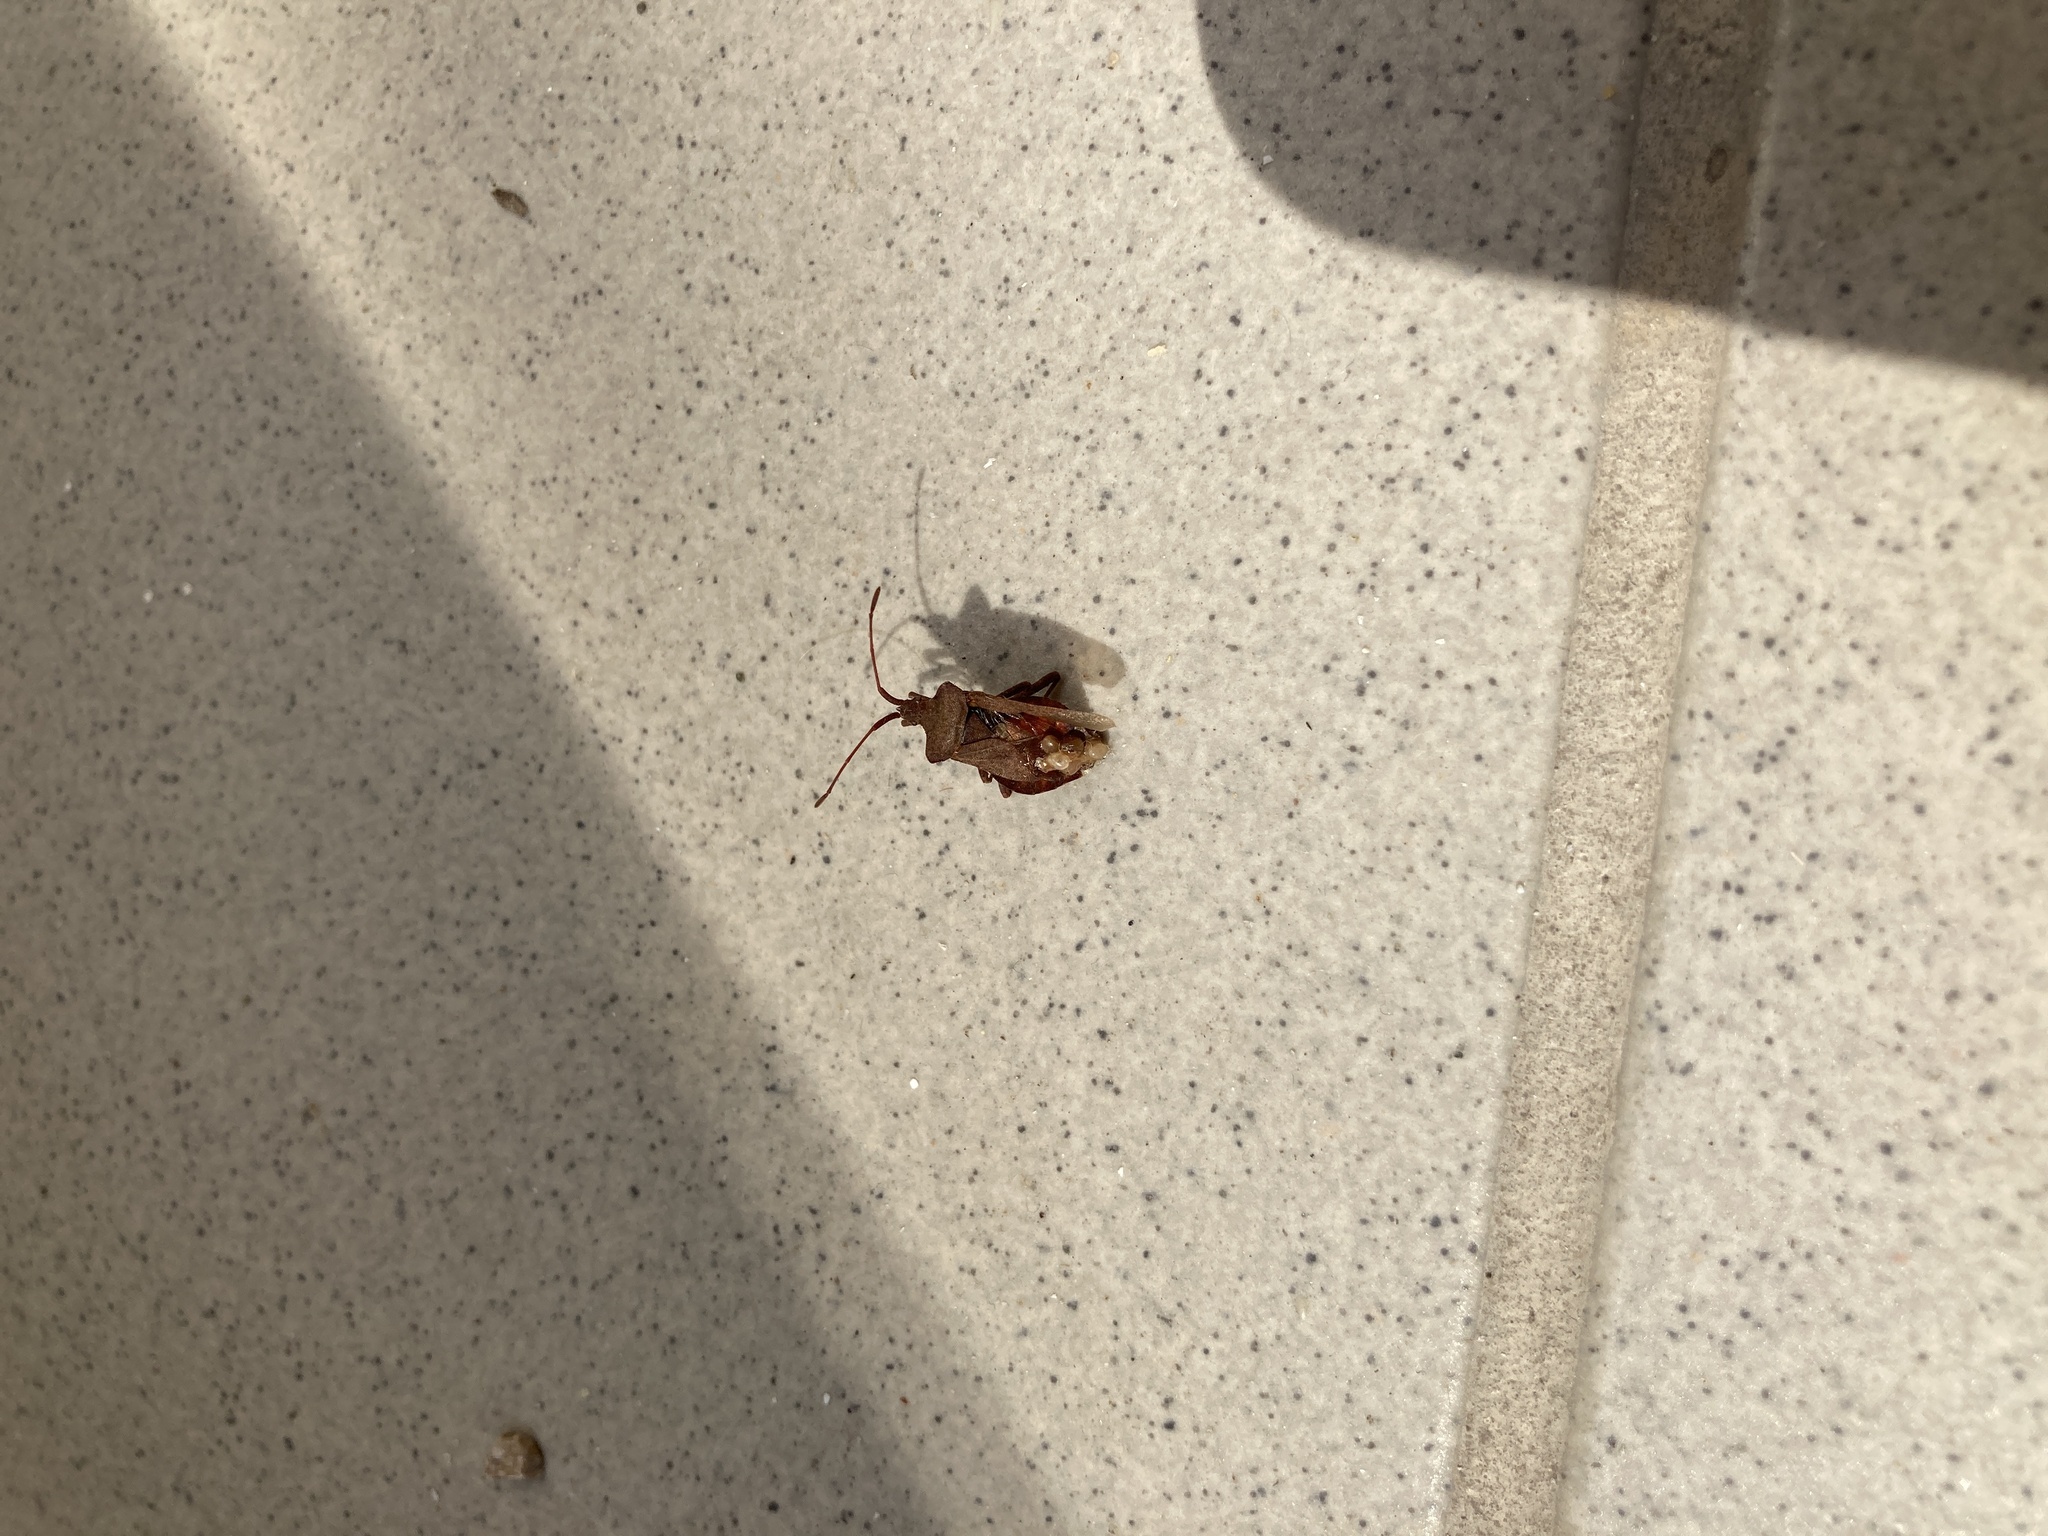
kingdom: Animalia
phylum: Arthropoda
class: Insecta
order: Hemiptera
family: Coreidae
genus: Coreus
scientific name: Coreus marginatus
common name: Dock bug
